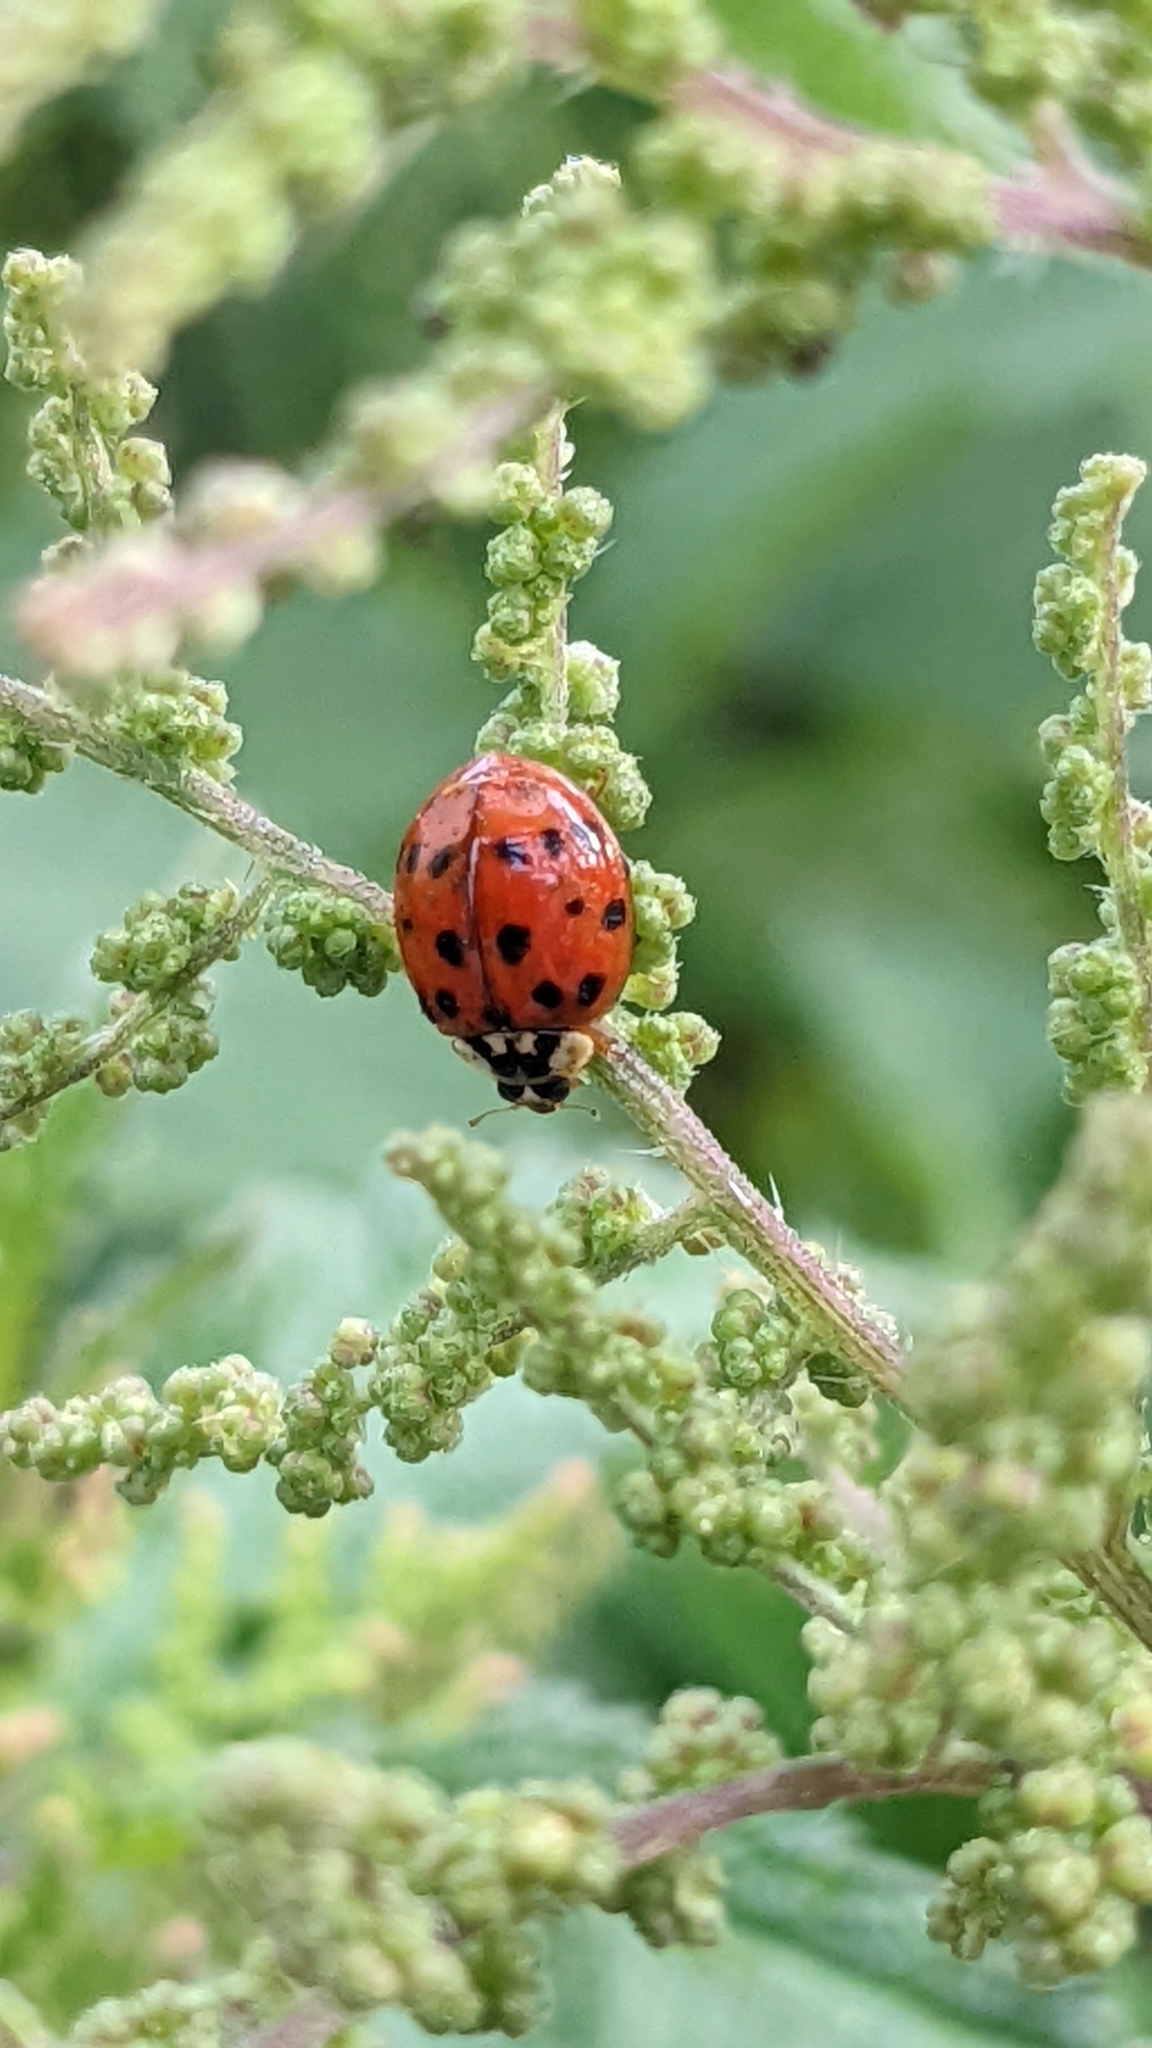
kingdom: Animalia
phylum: Arthropoda
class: Insecta
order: Coleoptera
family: Coccinellidae
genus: Harmonia
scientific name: Harmonia axyridis
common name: Harlequin ladybird
